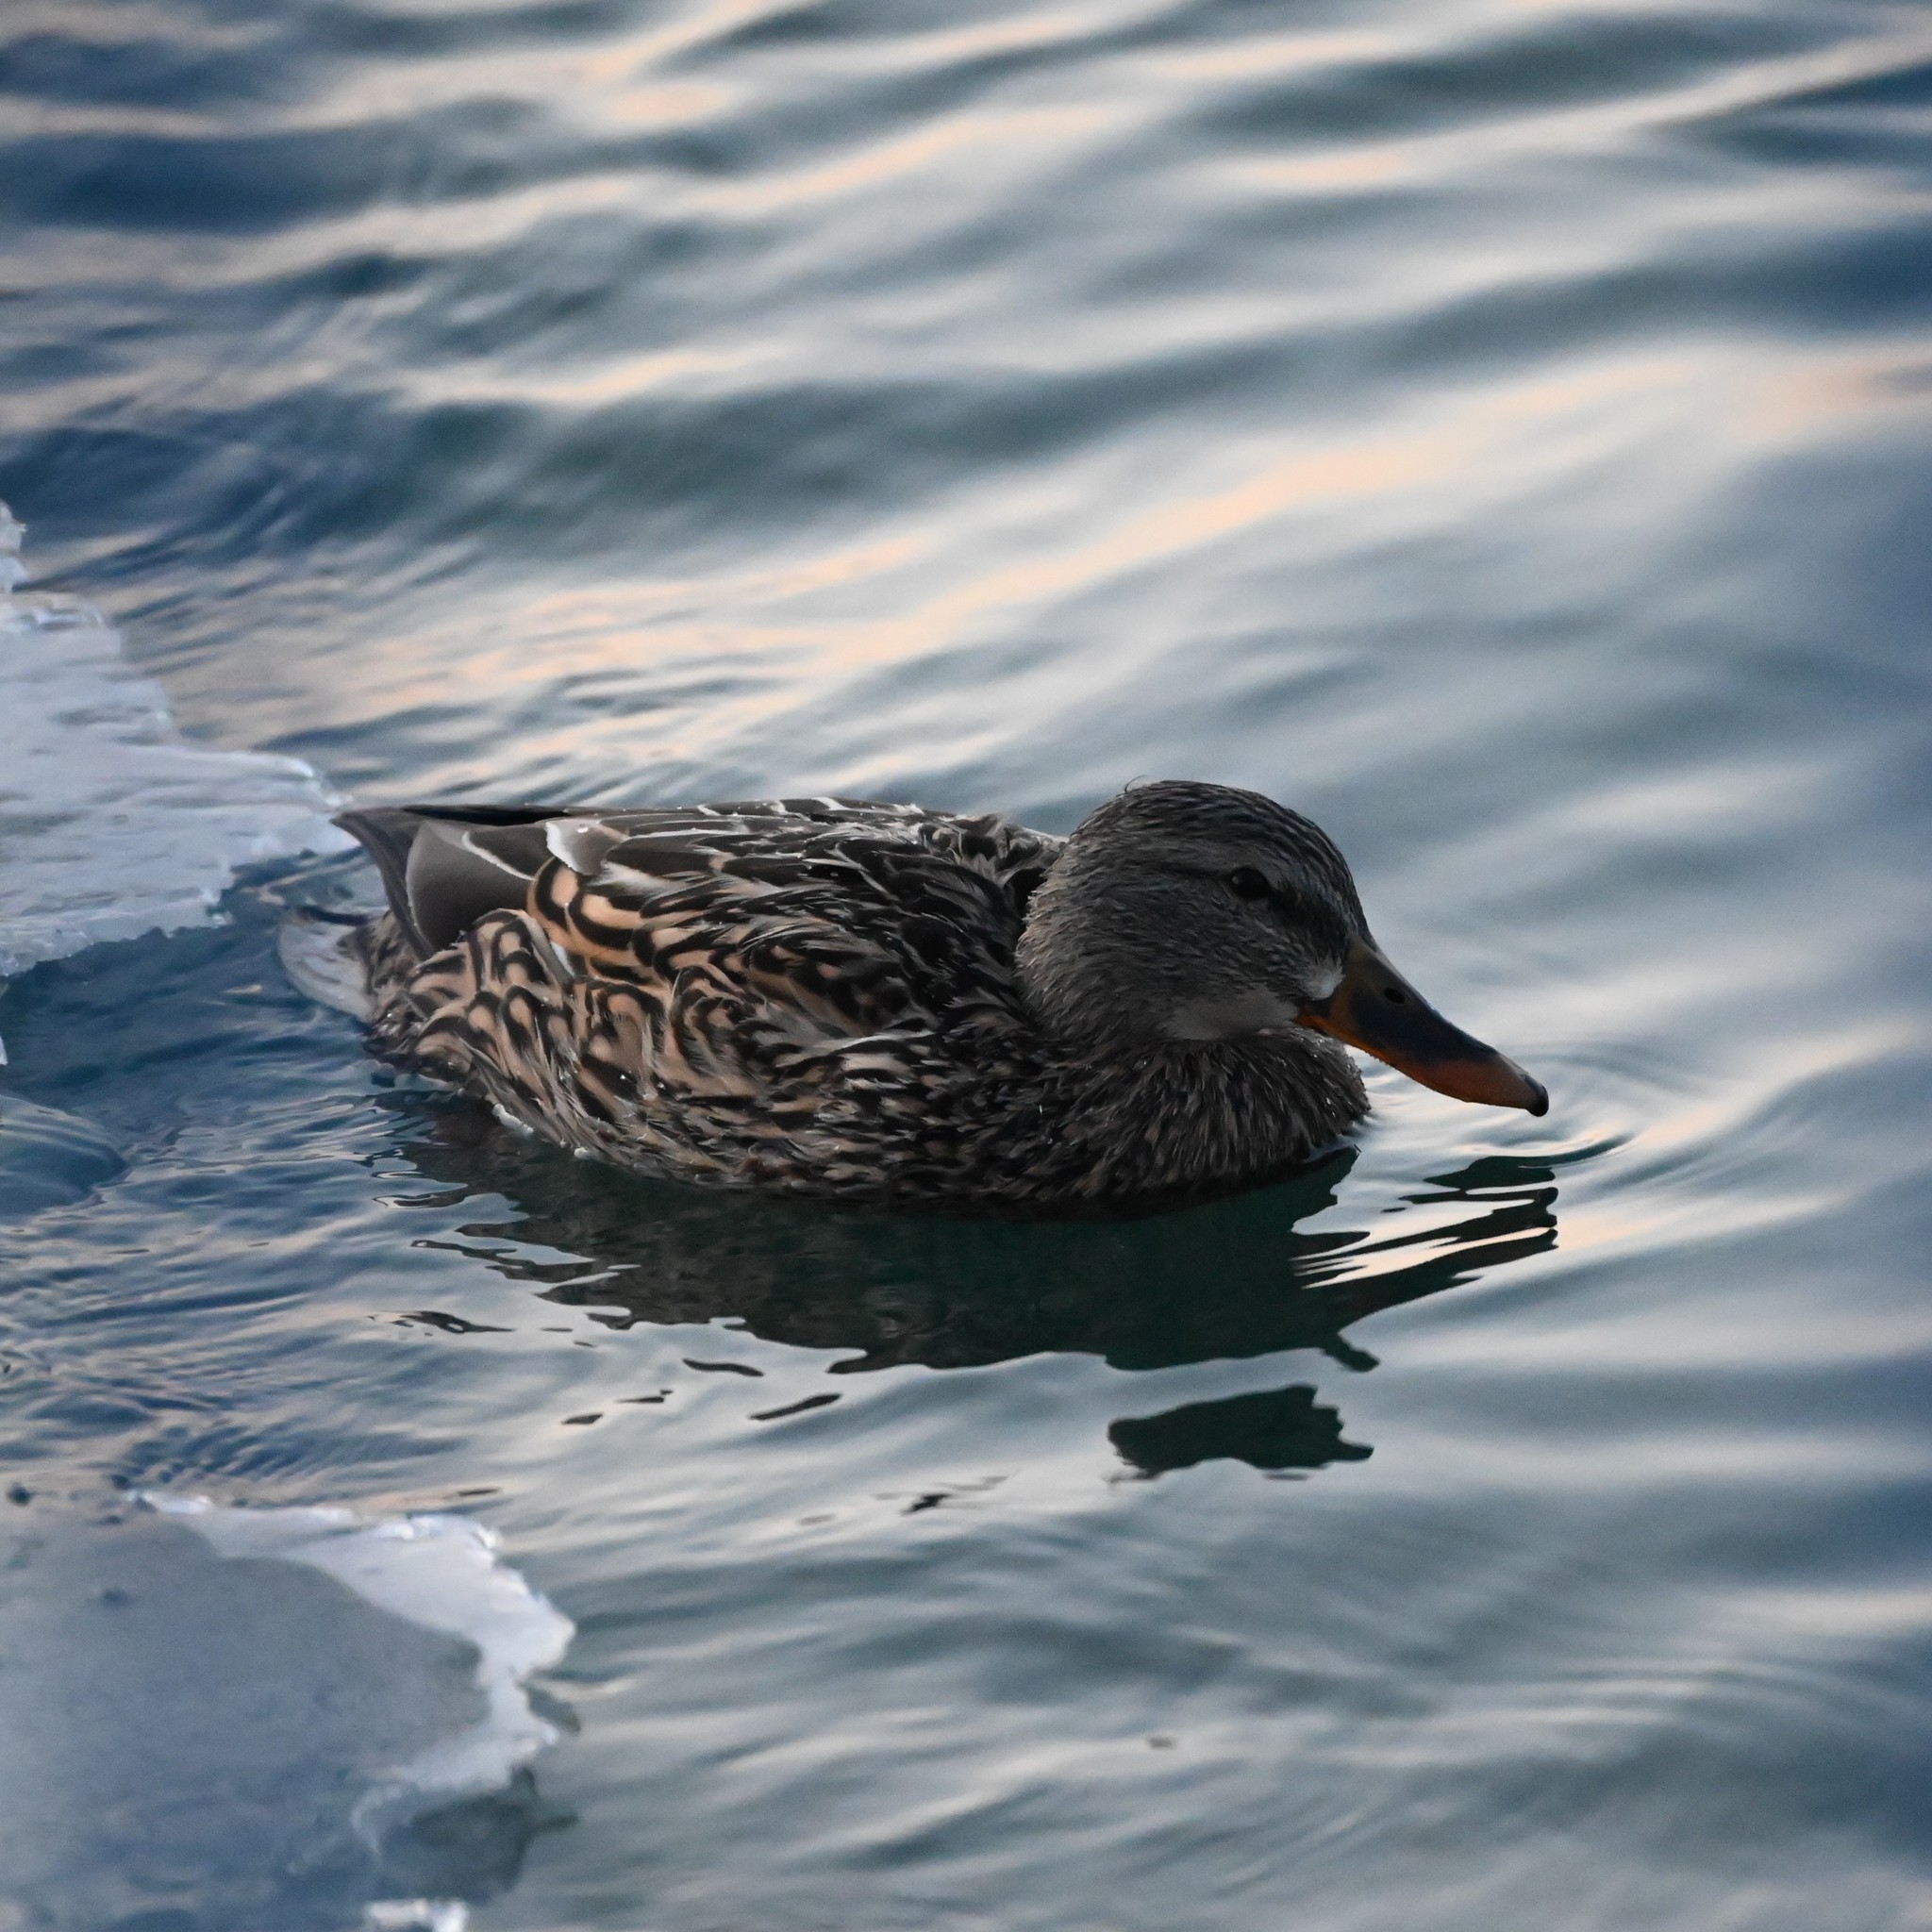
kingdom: Animalia
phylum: Chordata
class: Aves
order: Anseriformes
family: Anatidae
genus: Anas
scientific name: Anas platyrhynchos
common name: Mallard
